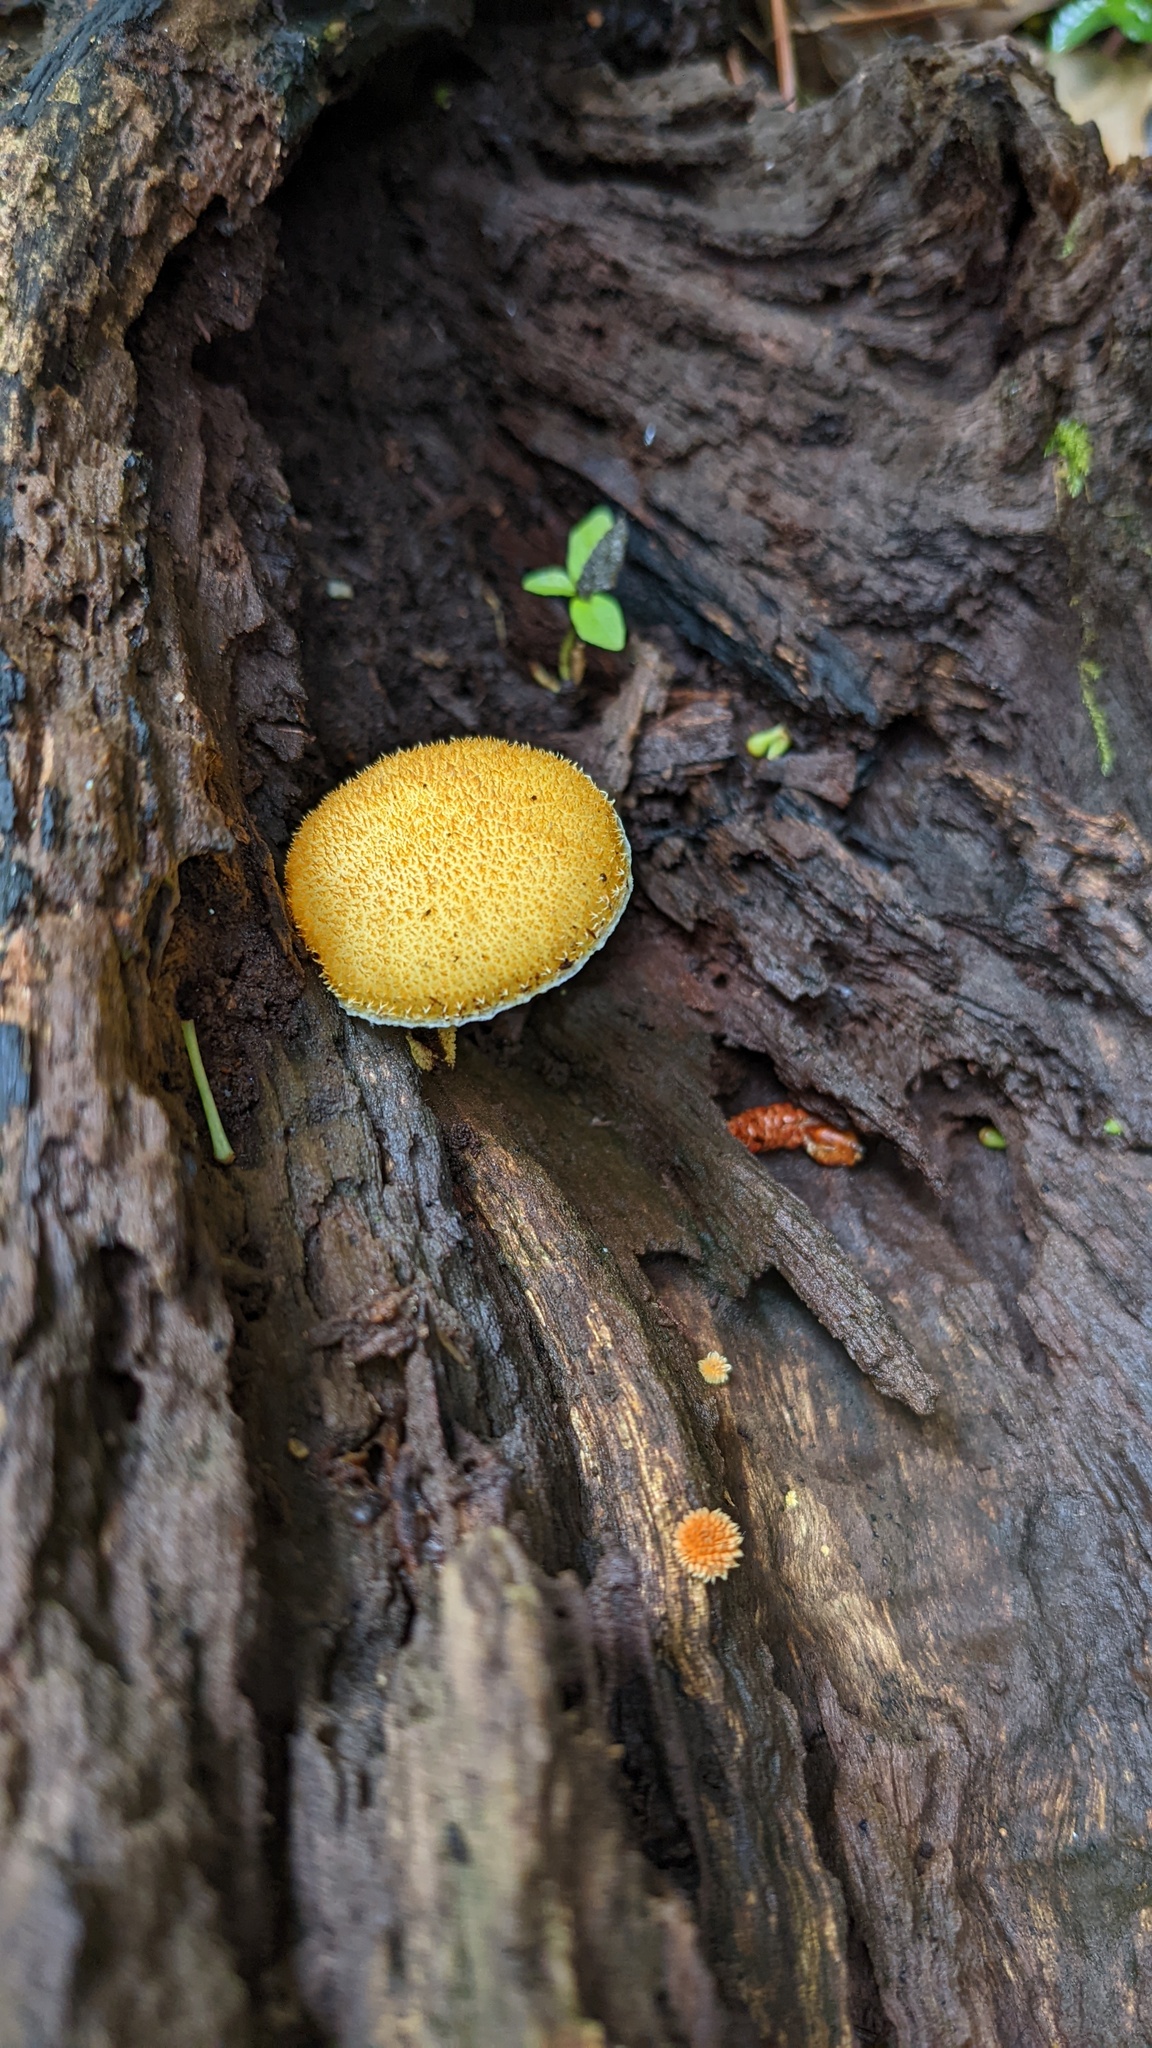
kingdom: Fungi
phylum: Basidiomycota
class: Agaricomycetes
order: Agaricales
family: Physalacriaceae
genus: Cyptotrama
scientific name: Cyptotrama asprata
